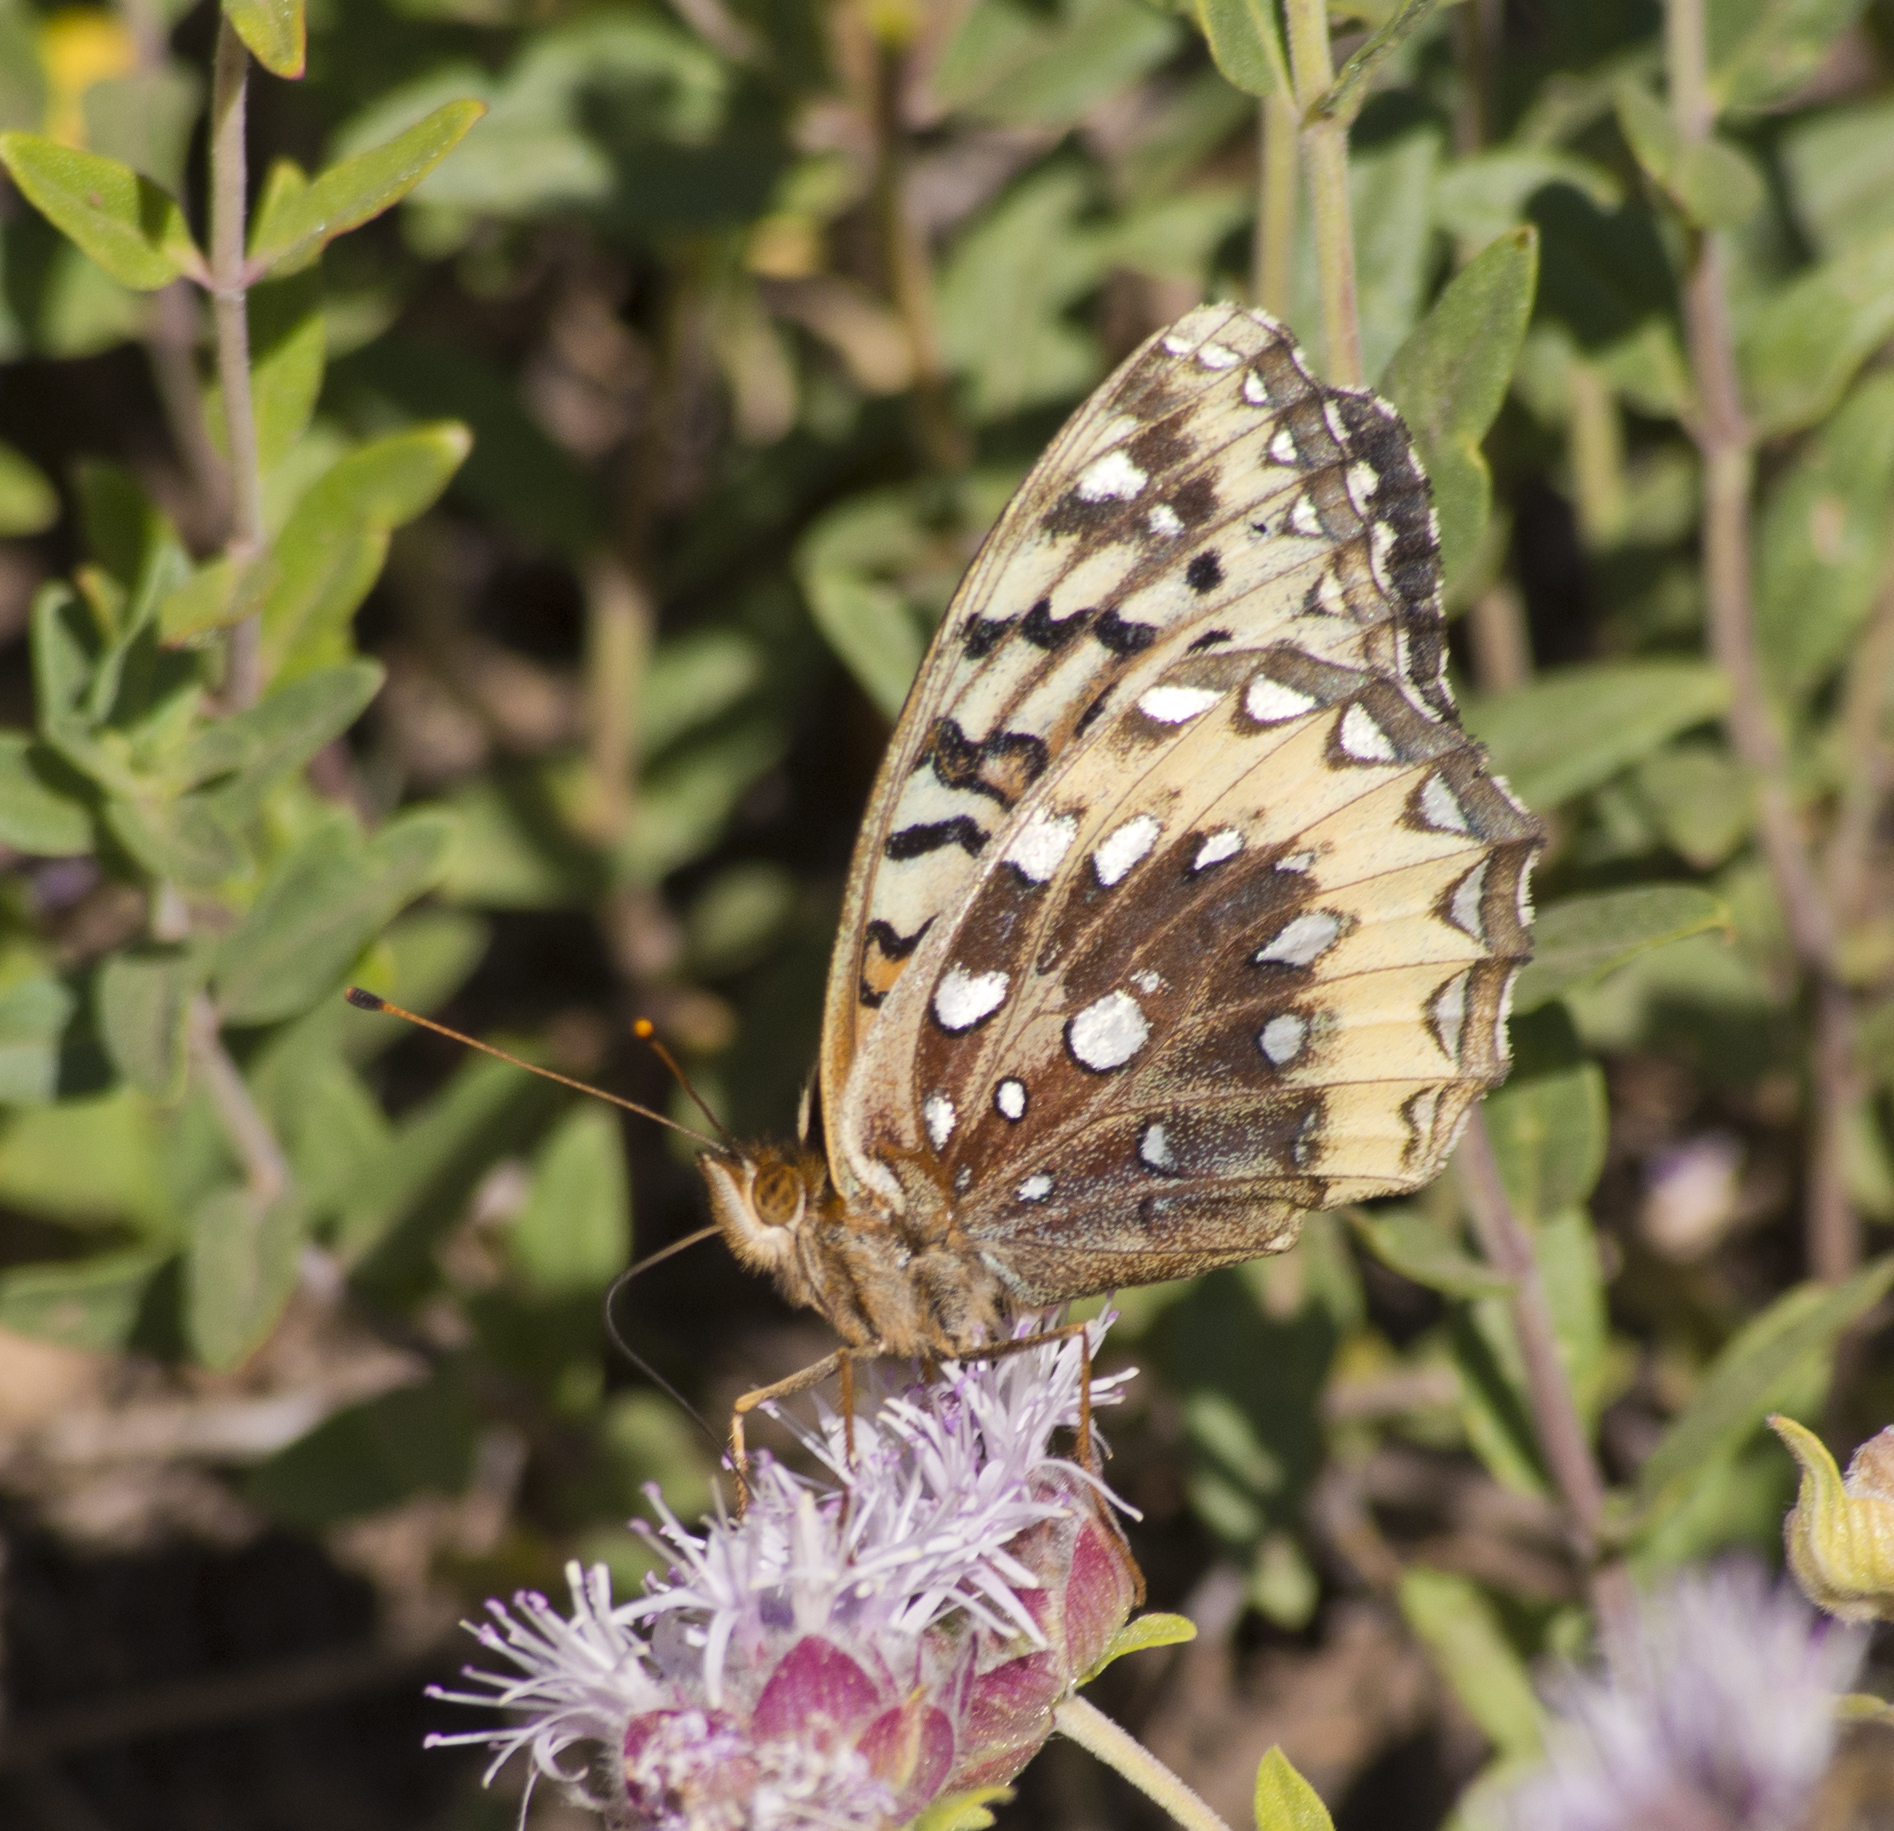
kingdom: Animalia
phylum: Arthropoda
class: Insecta
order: Lepidoptera
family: Nymphalidae
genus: Speyeria
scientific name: Speyeria cybele
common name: Great spangled fritillary
